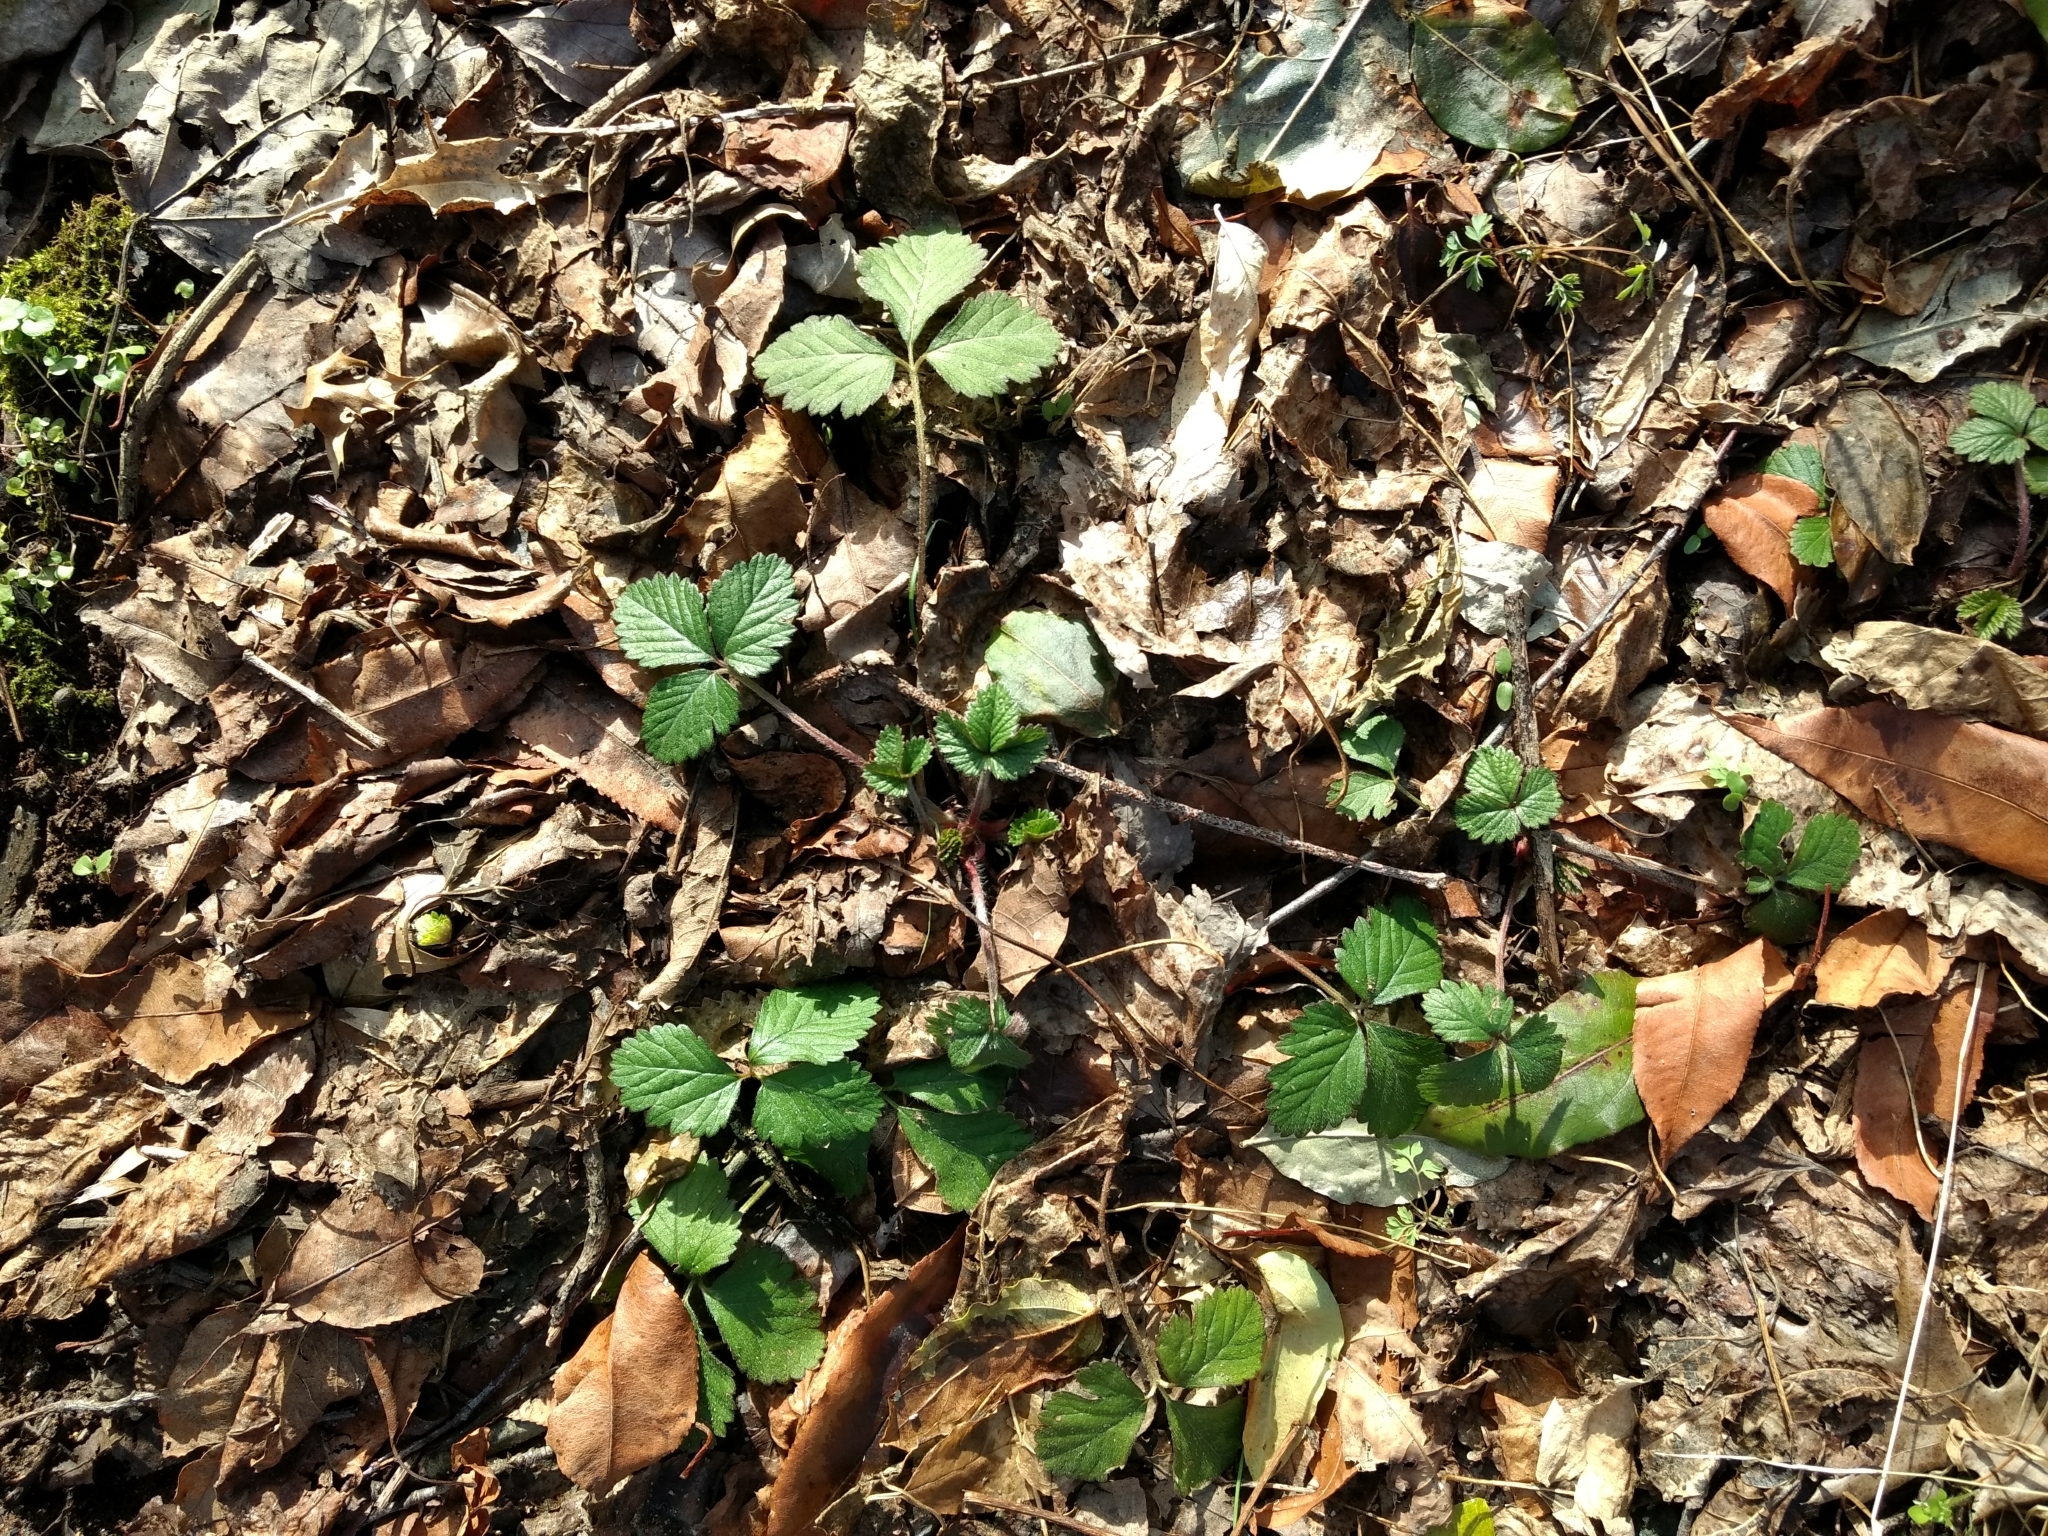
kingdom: Plantae
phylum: Tracheophyta
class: Magnoliopsida
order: Rosales
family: Rosaceae
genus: Potentilla
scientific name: Potentilla indica
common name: Yellow-flowered strawberry
